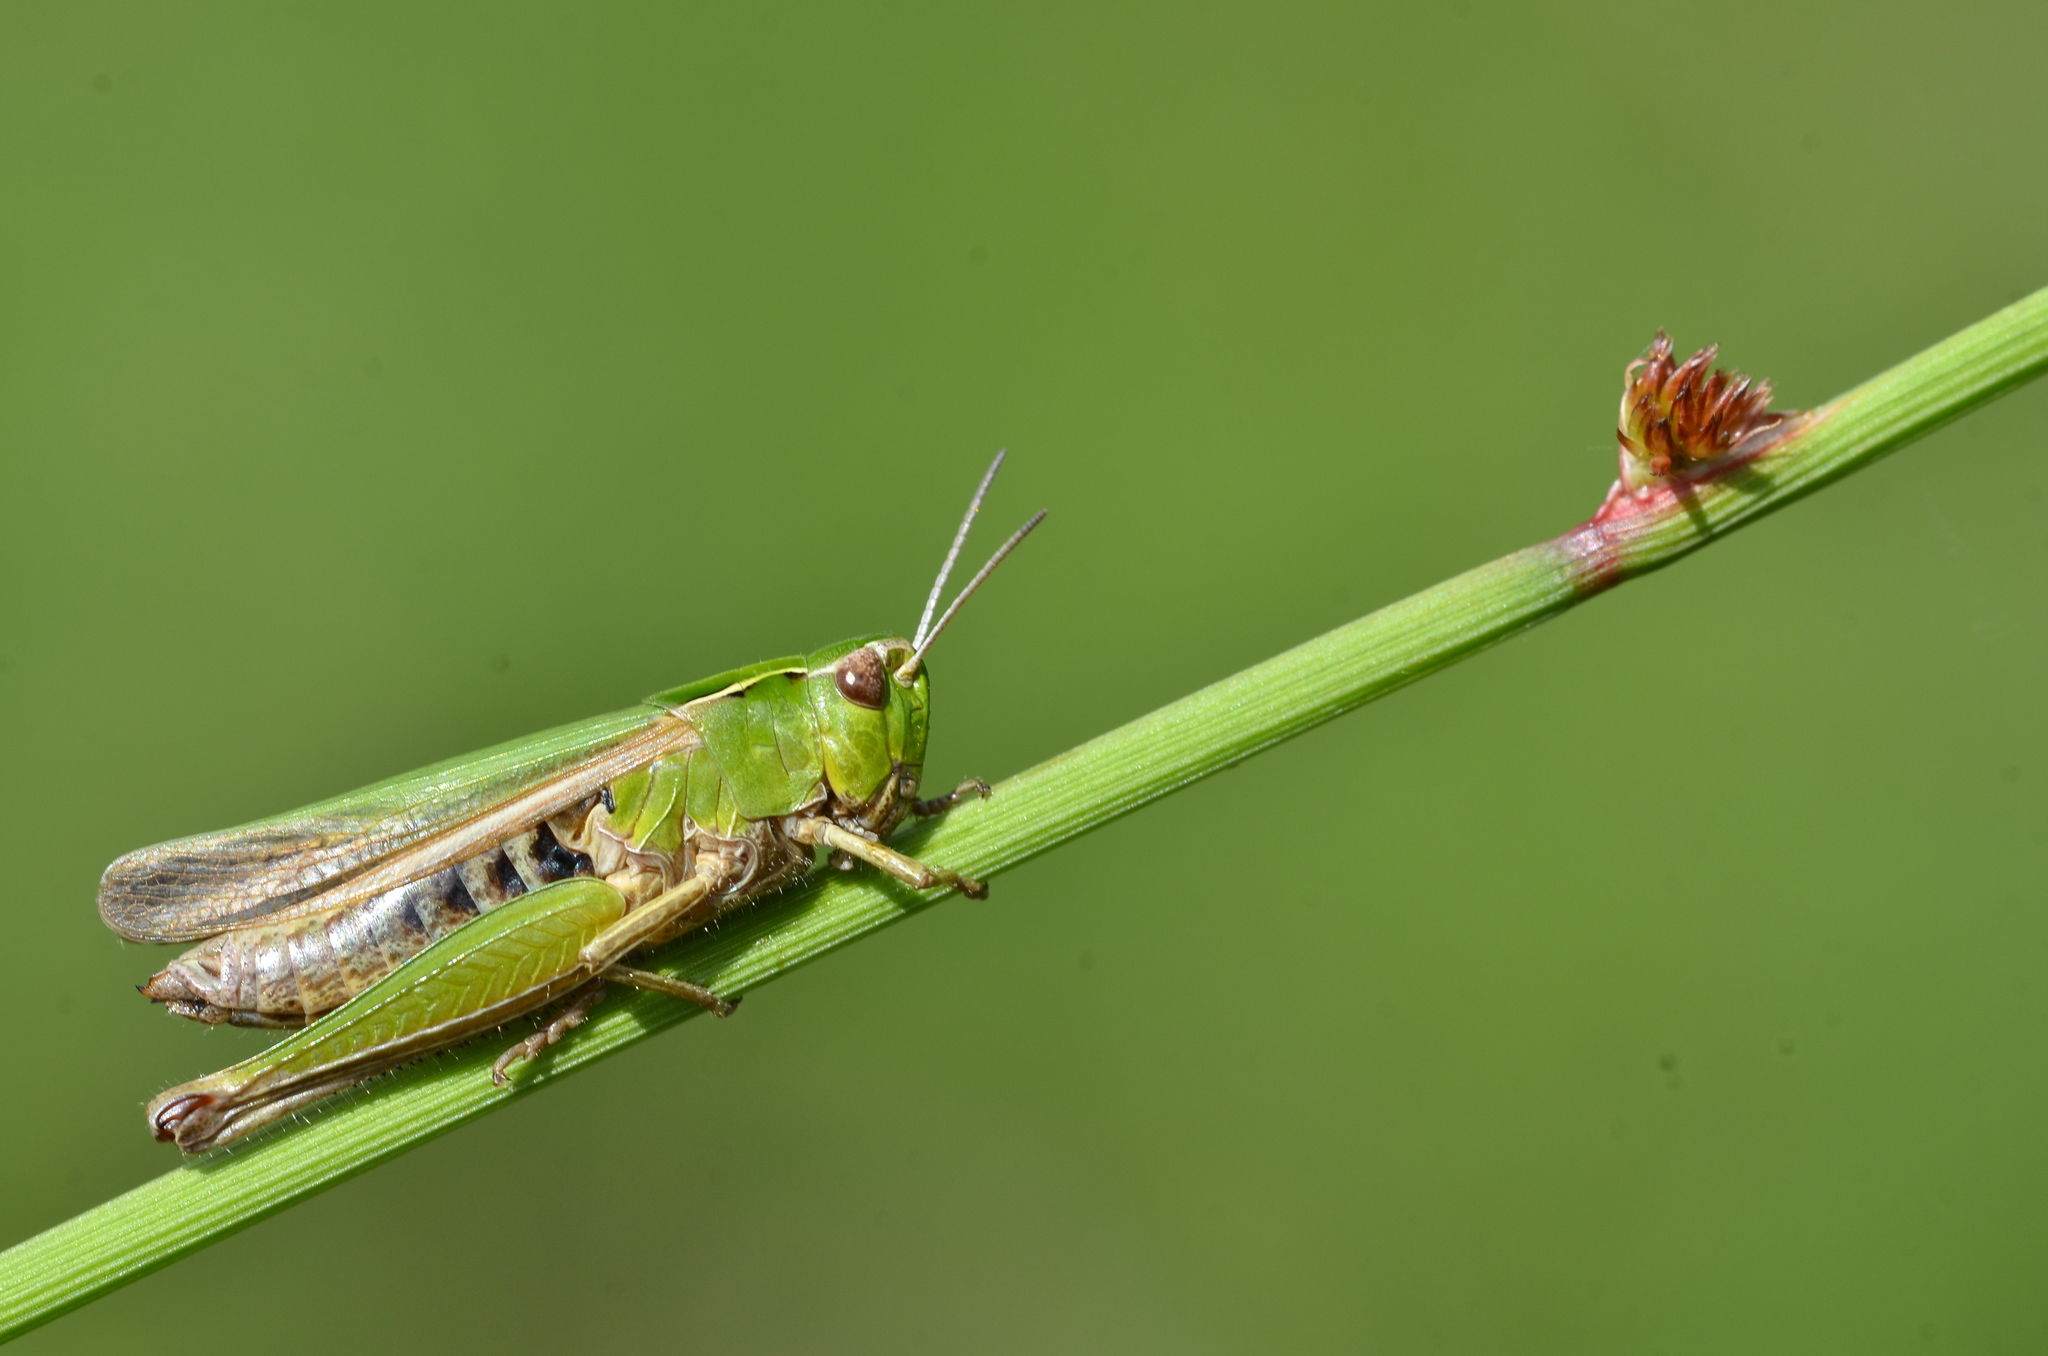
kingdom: Animalia
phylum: Arthropoda
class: Insecta
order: Orthoptera
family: Acrididae
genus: Omocestus
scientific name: Omocestus viridulus
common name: Common green grasshopper
